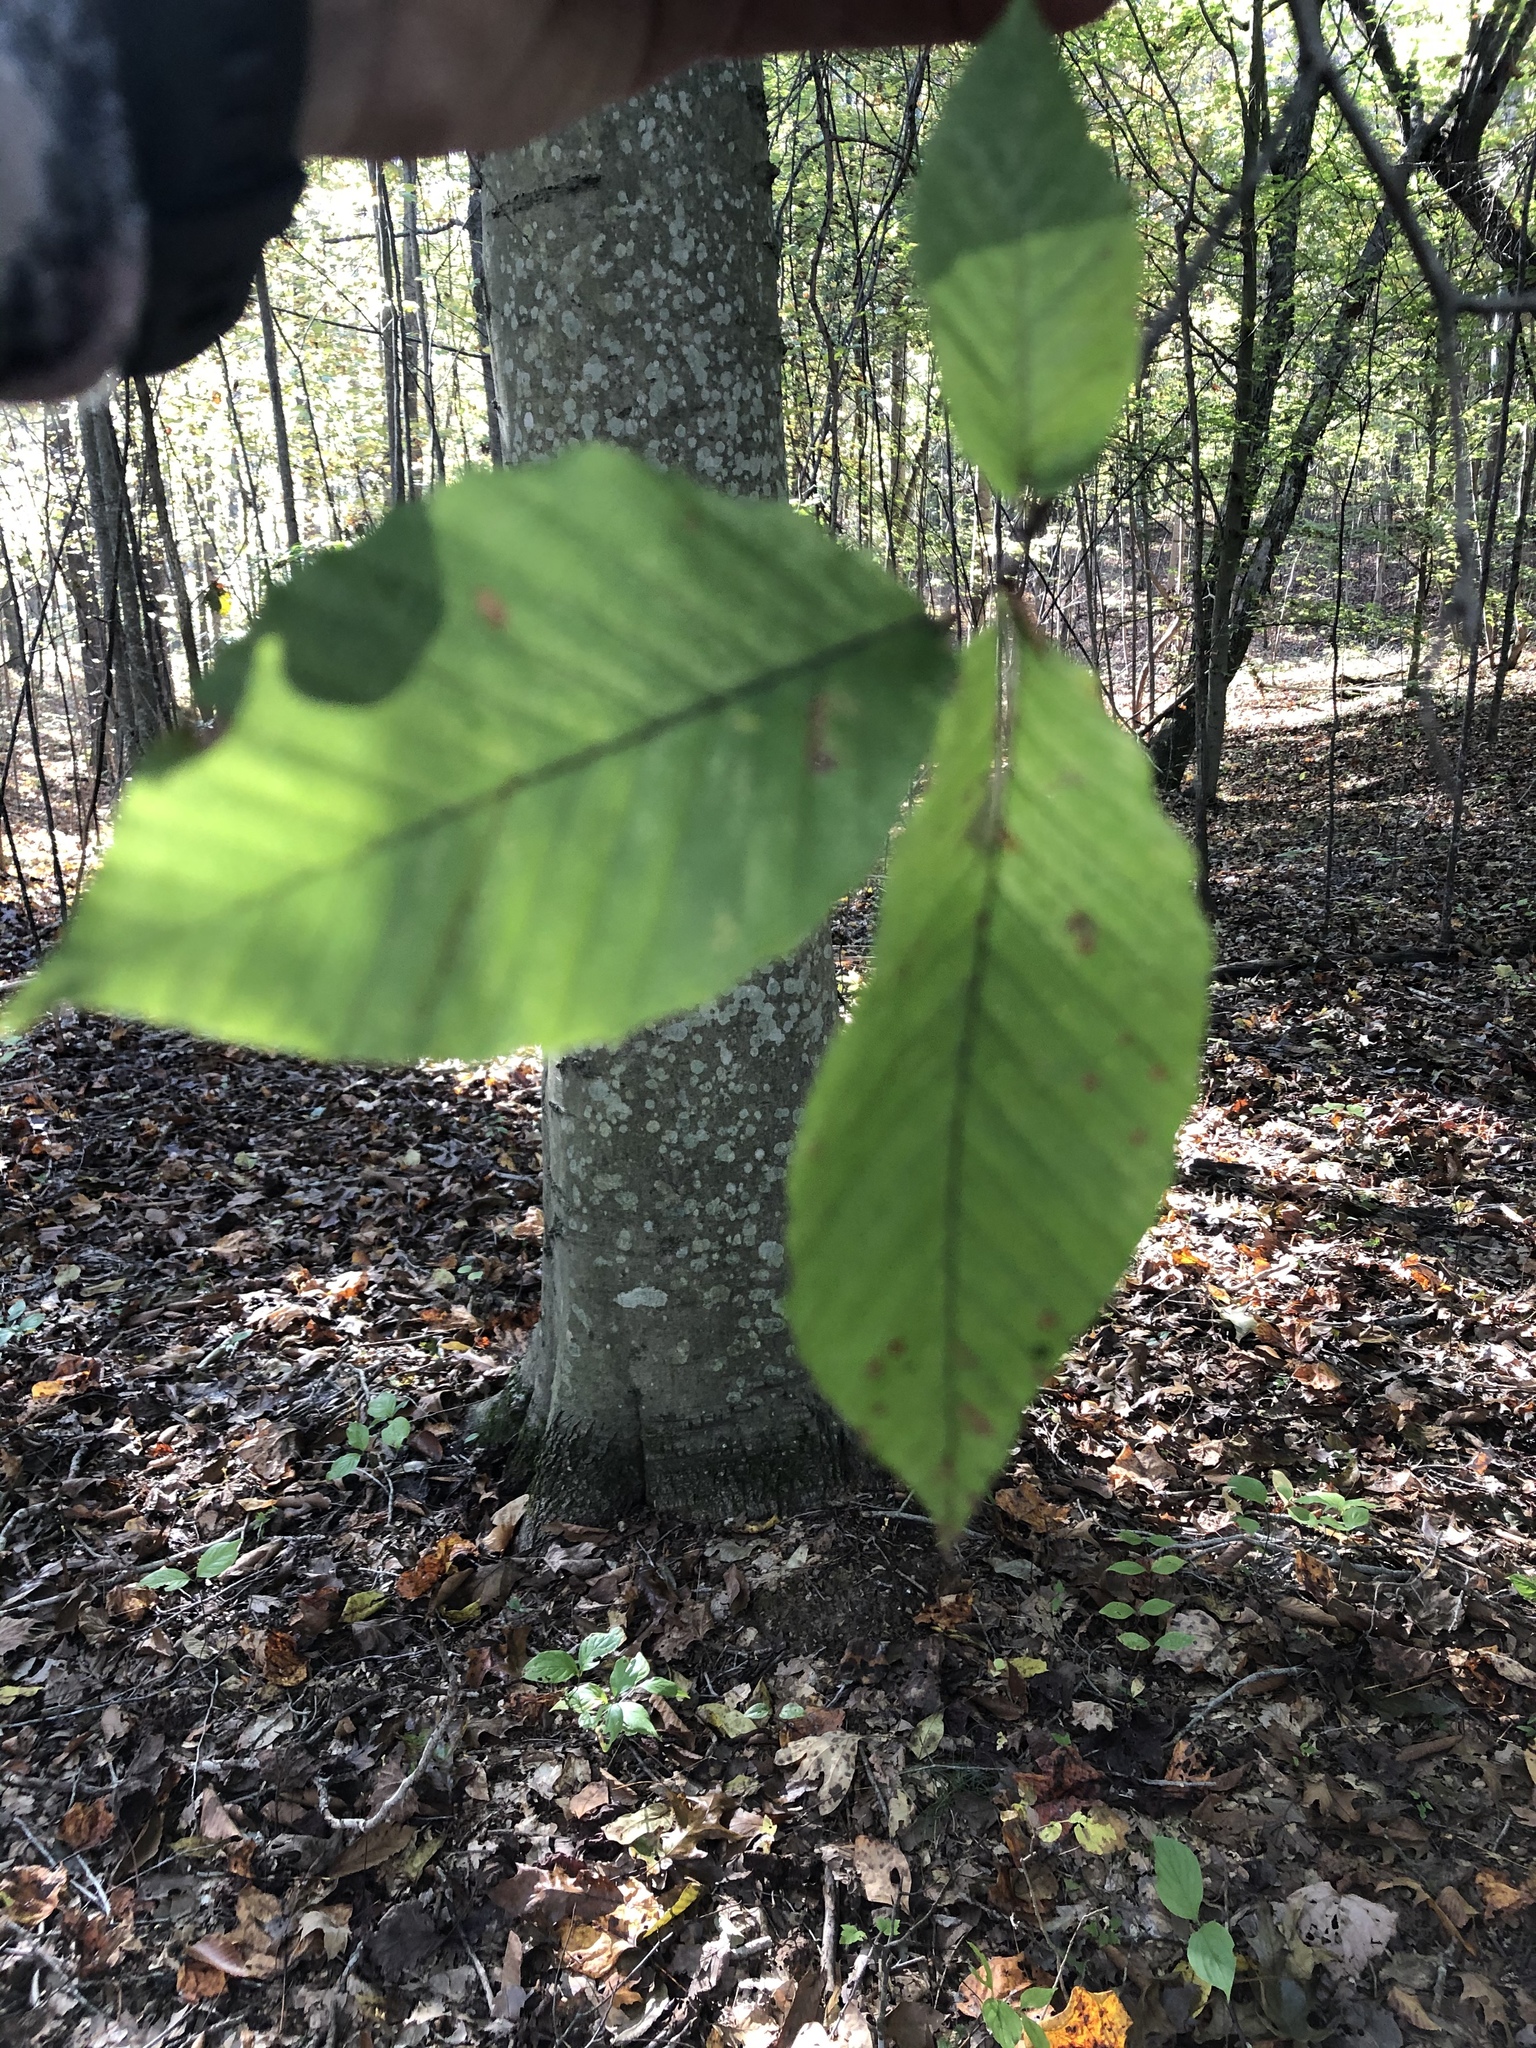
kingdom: Plantae
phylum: Tracheophyta
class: Magnoliopsida
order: Fagales
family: Fagaceae
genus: Fagus
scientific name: Fagus grandifolia
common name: American beech
